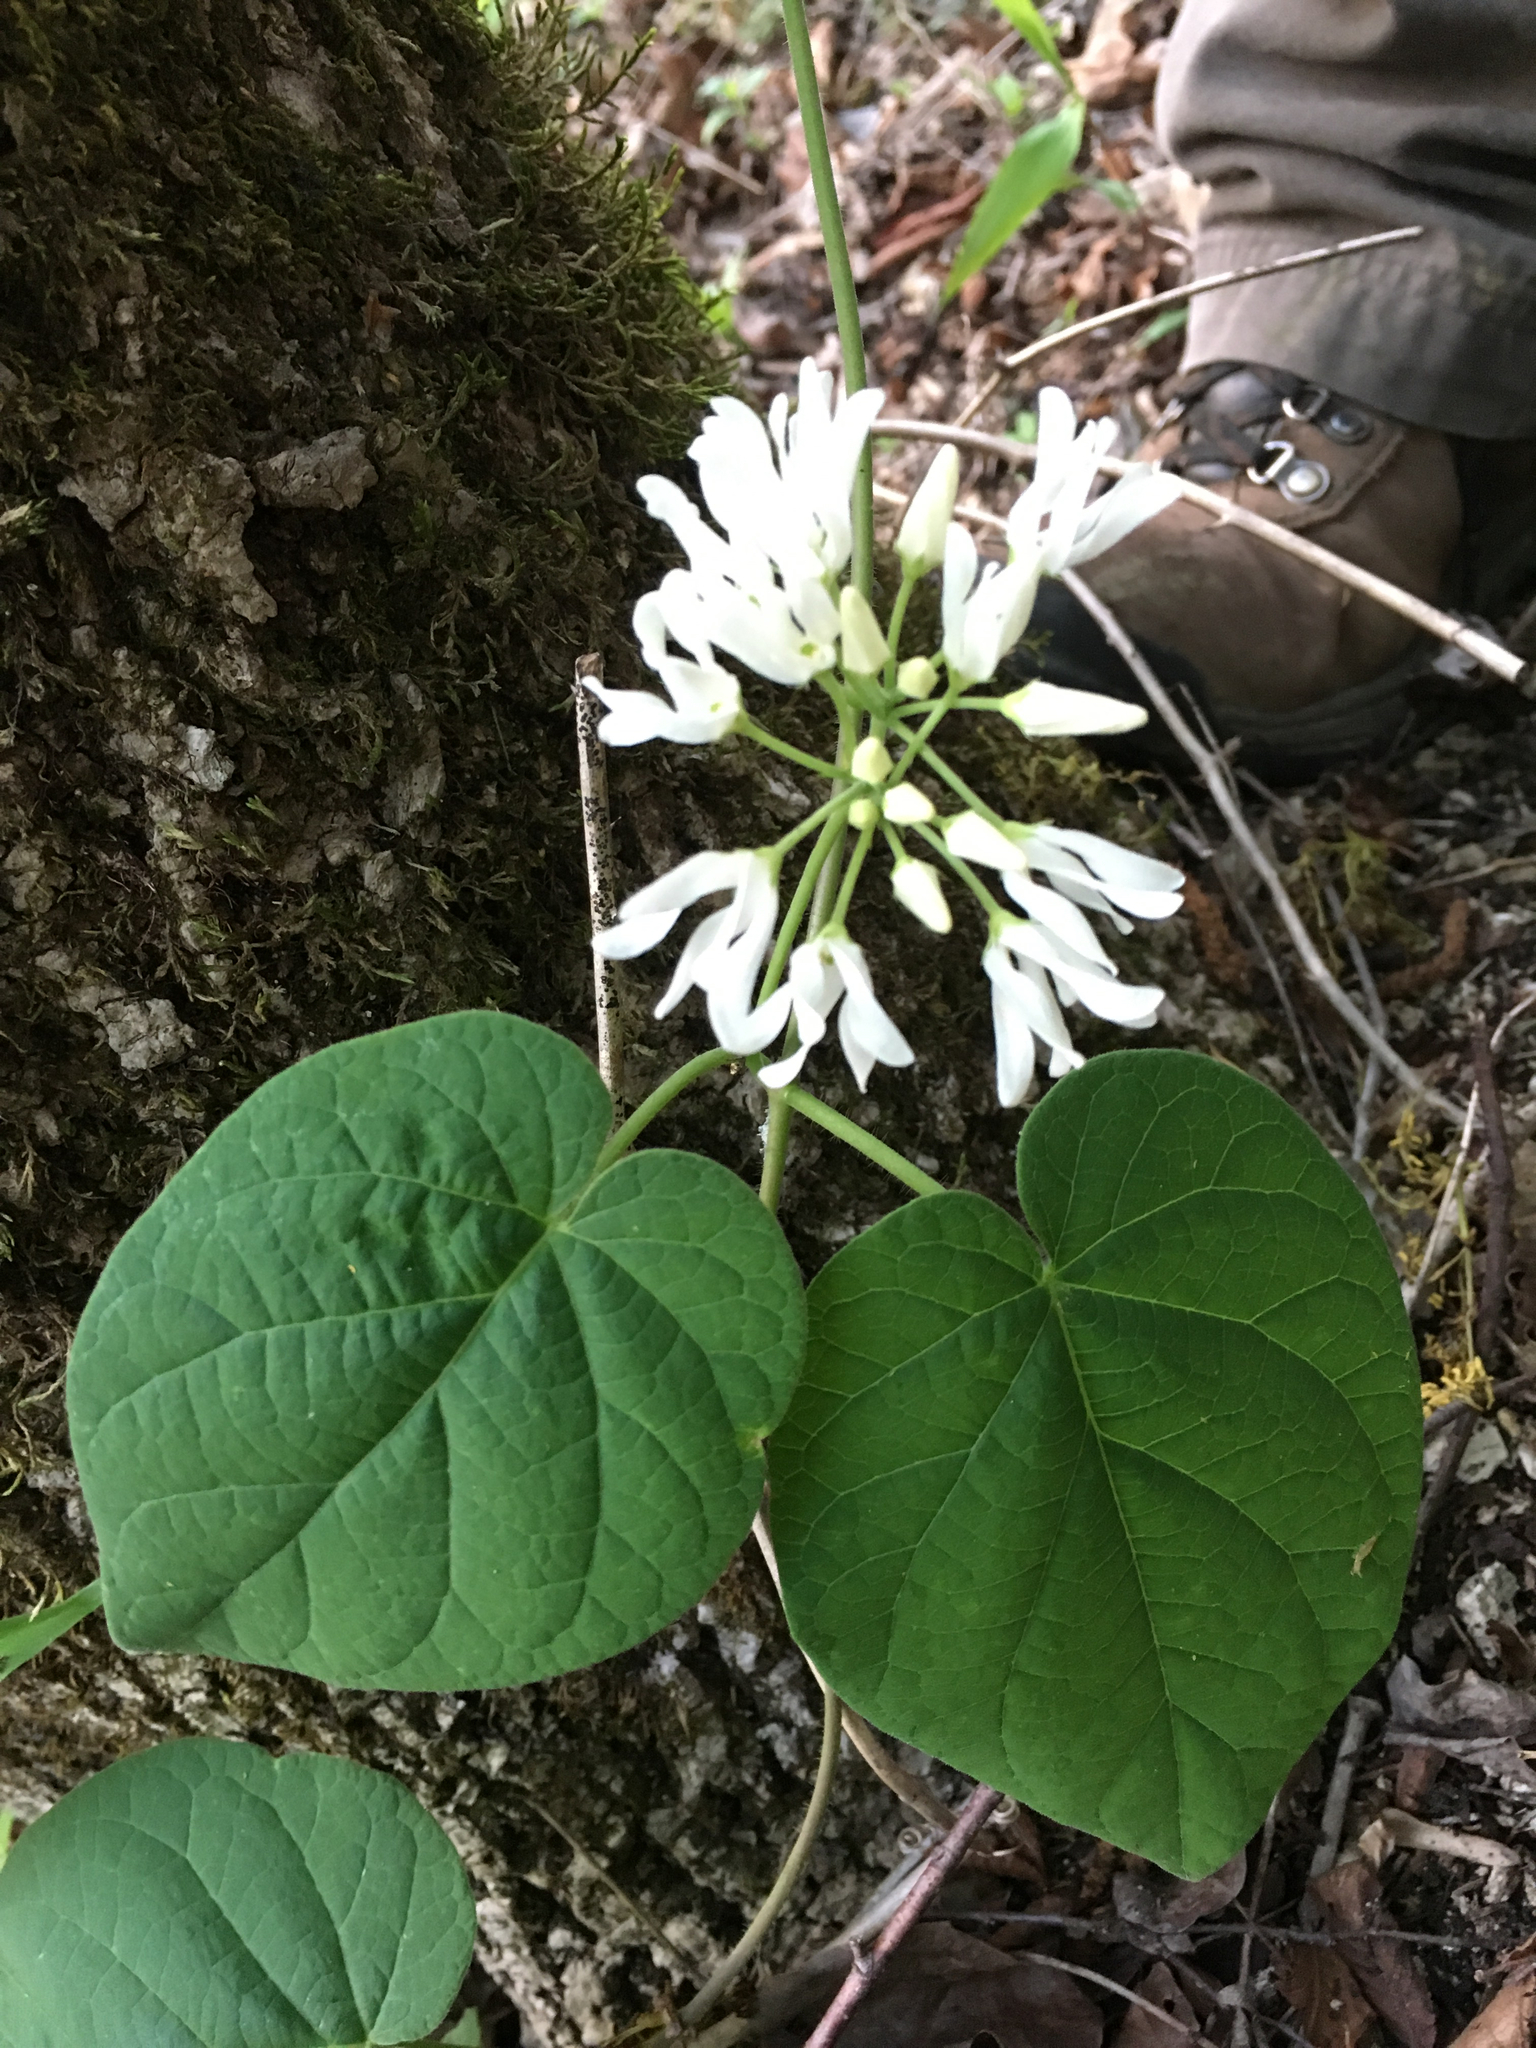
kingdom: Plantae
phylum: Tracheophyta
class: Magnoliopsida
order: Gentianales
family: Apocynaceae
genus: Matelea
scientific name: Matelea baldwyniana
